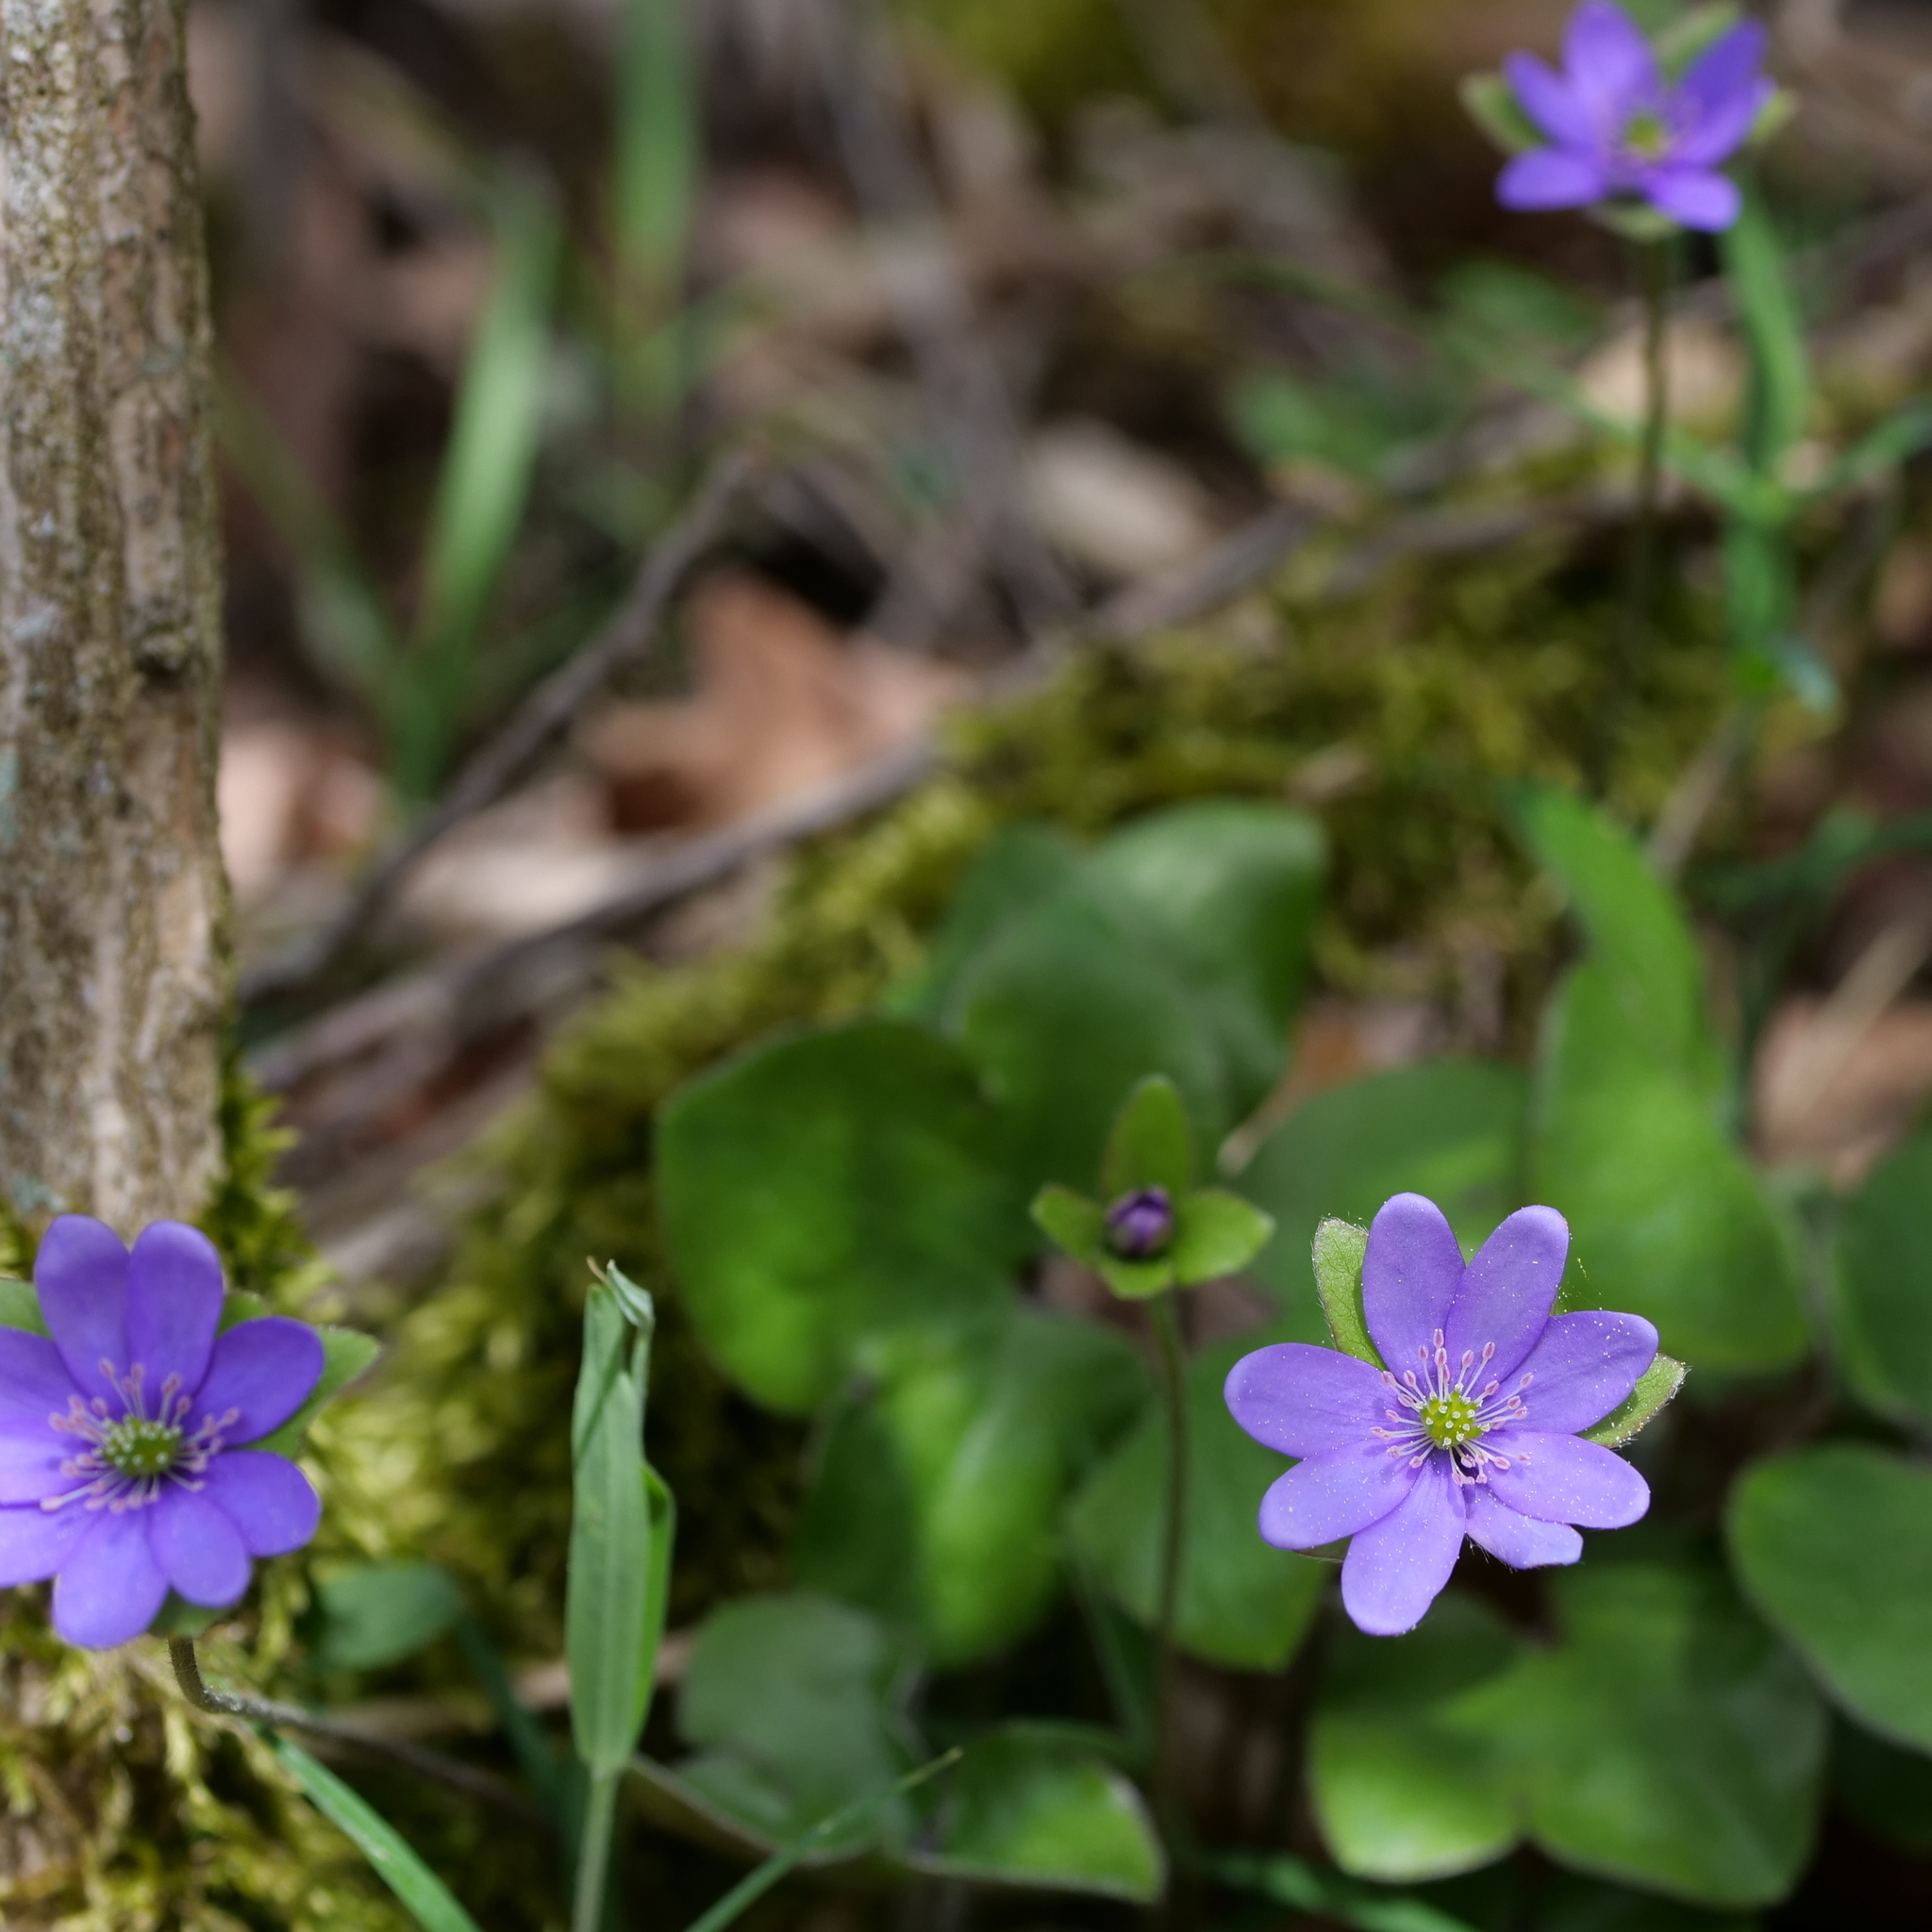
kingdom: Plantae
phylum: Tracheophyta
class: Magnoliopsida
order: Ranunculales
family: Ranunculaceae
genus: Hepatica
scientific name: Hepatica nobilis
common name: Liverleaf
